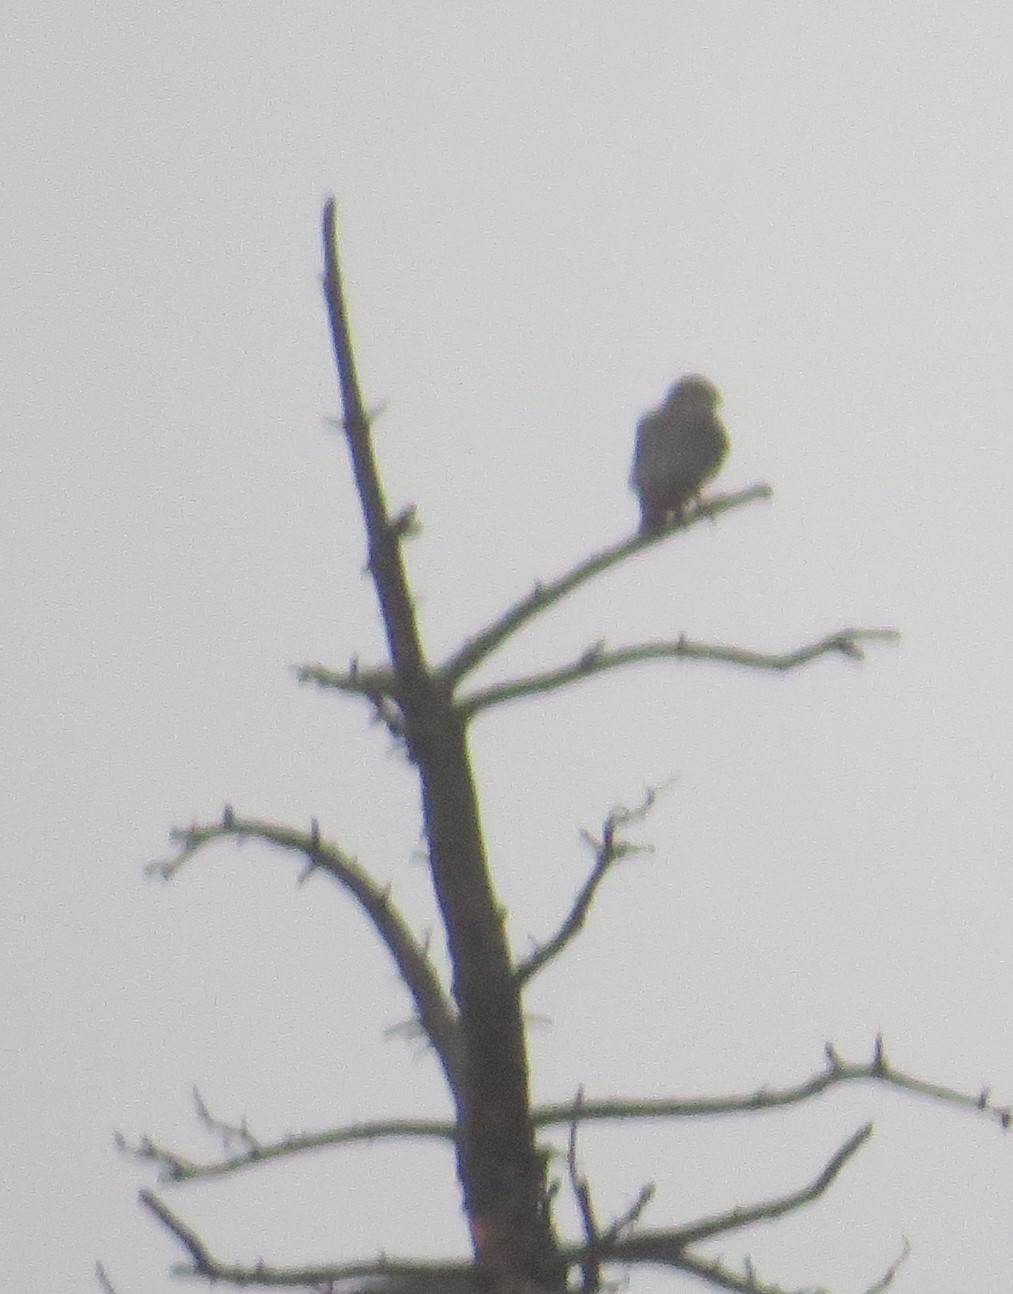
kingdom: Animalia
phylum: Chordata
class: Aves
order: Falconiformes
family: Falconidae
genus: Falco
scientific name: Falco columbarius
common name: Merlin
